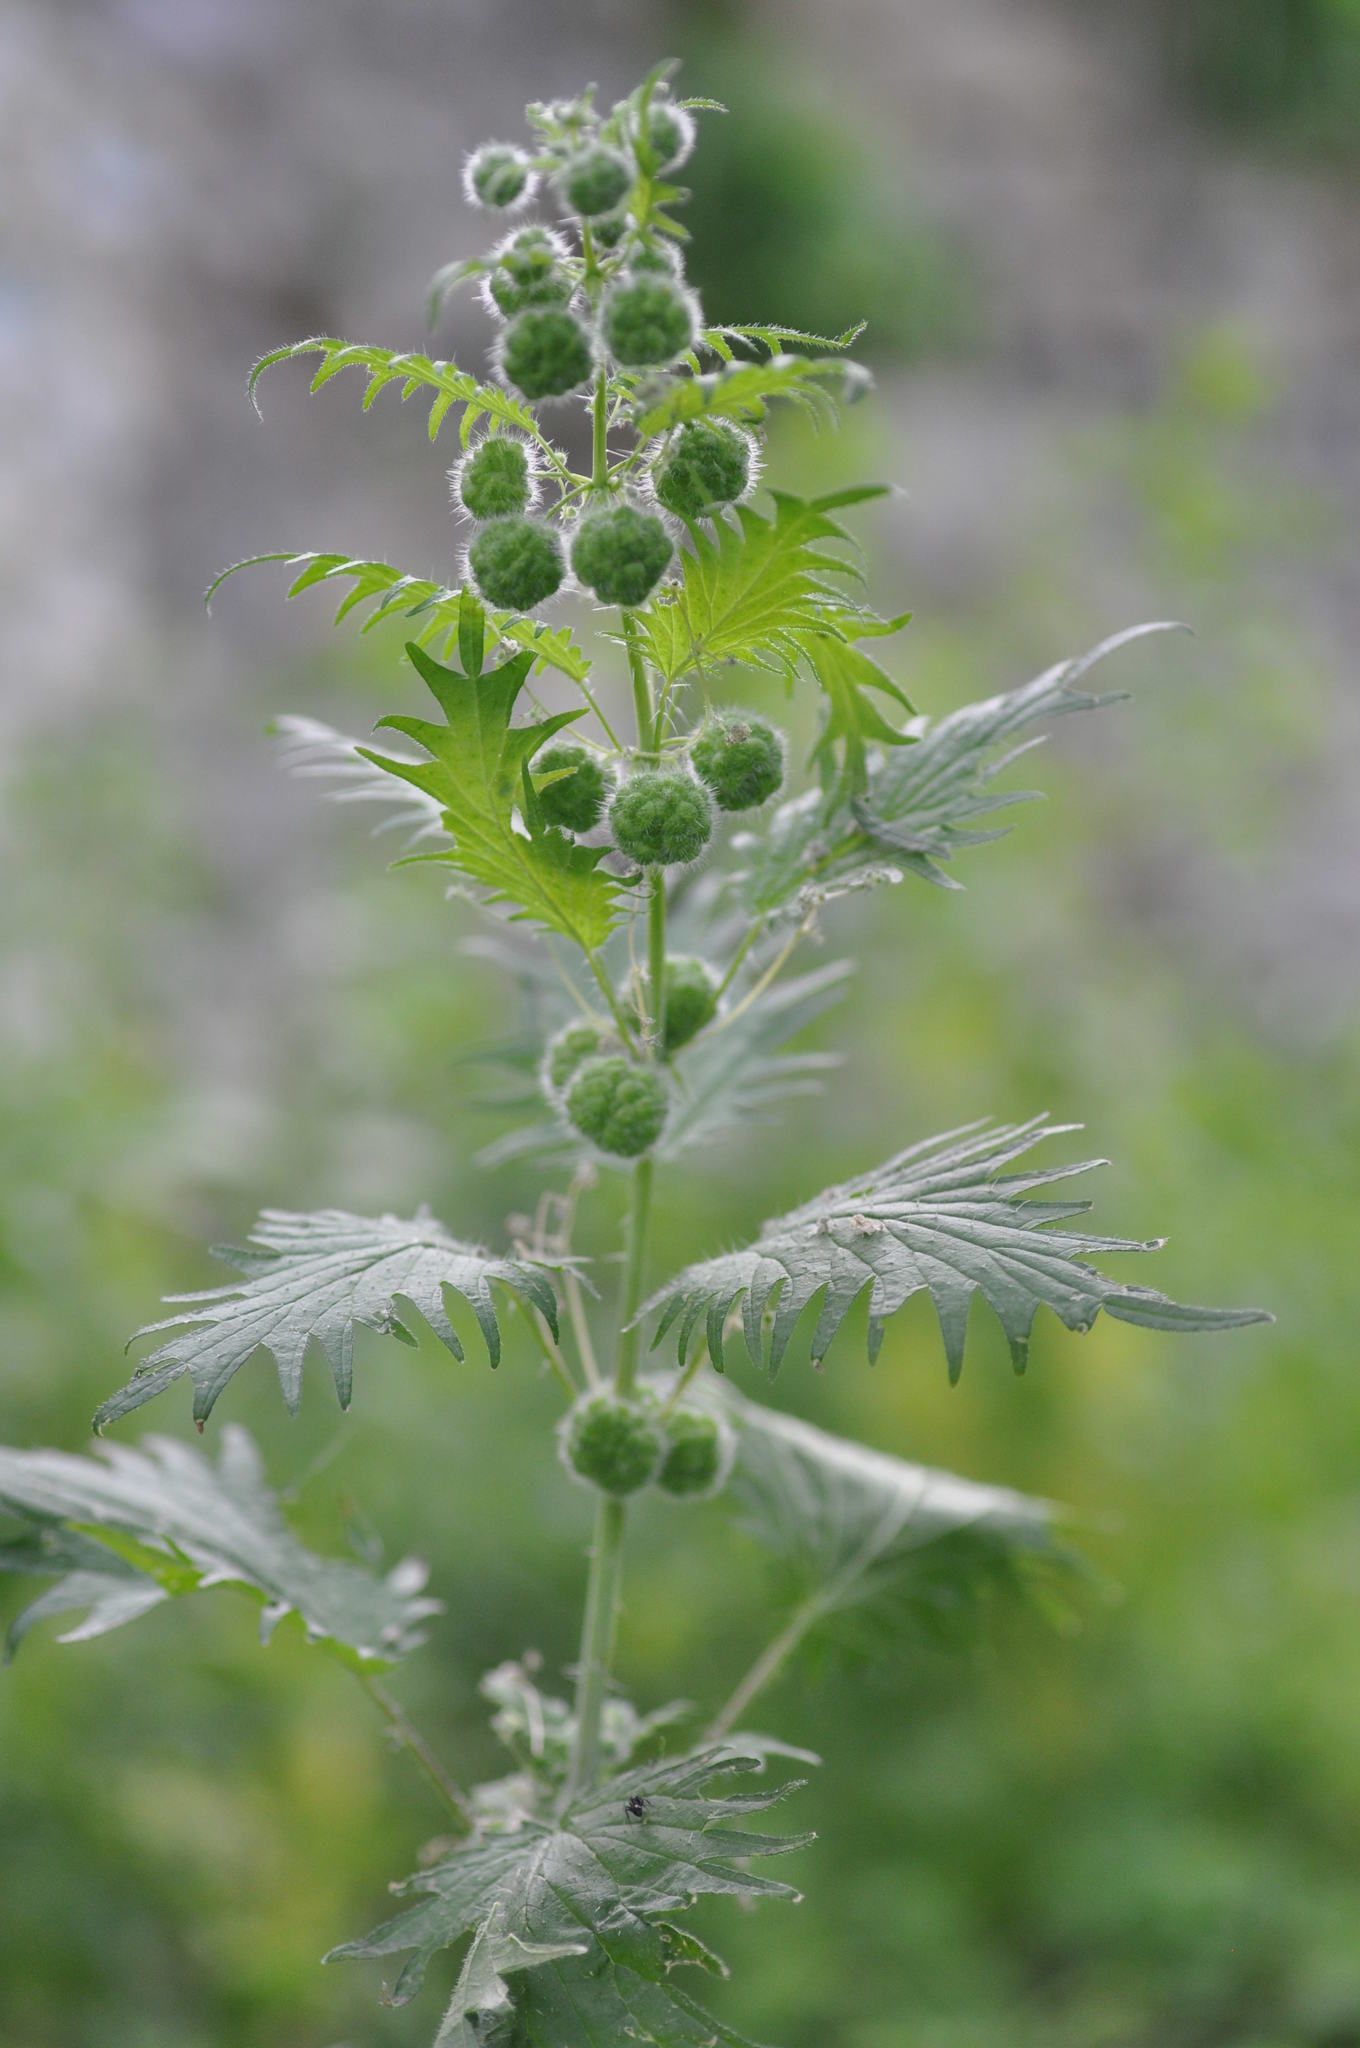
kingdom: Plantae
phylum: Tracheophyta
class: Magnoliopsida
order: Rosales
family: Urticaceae
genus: Urtica
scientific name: Urtica pilulifera
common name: Roman nettle
